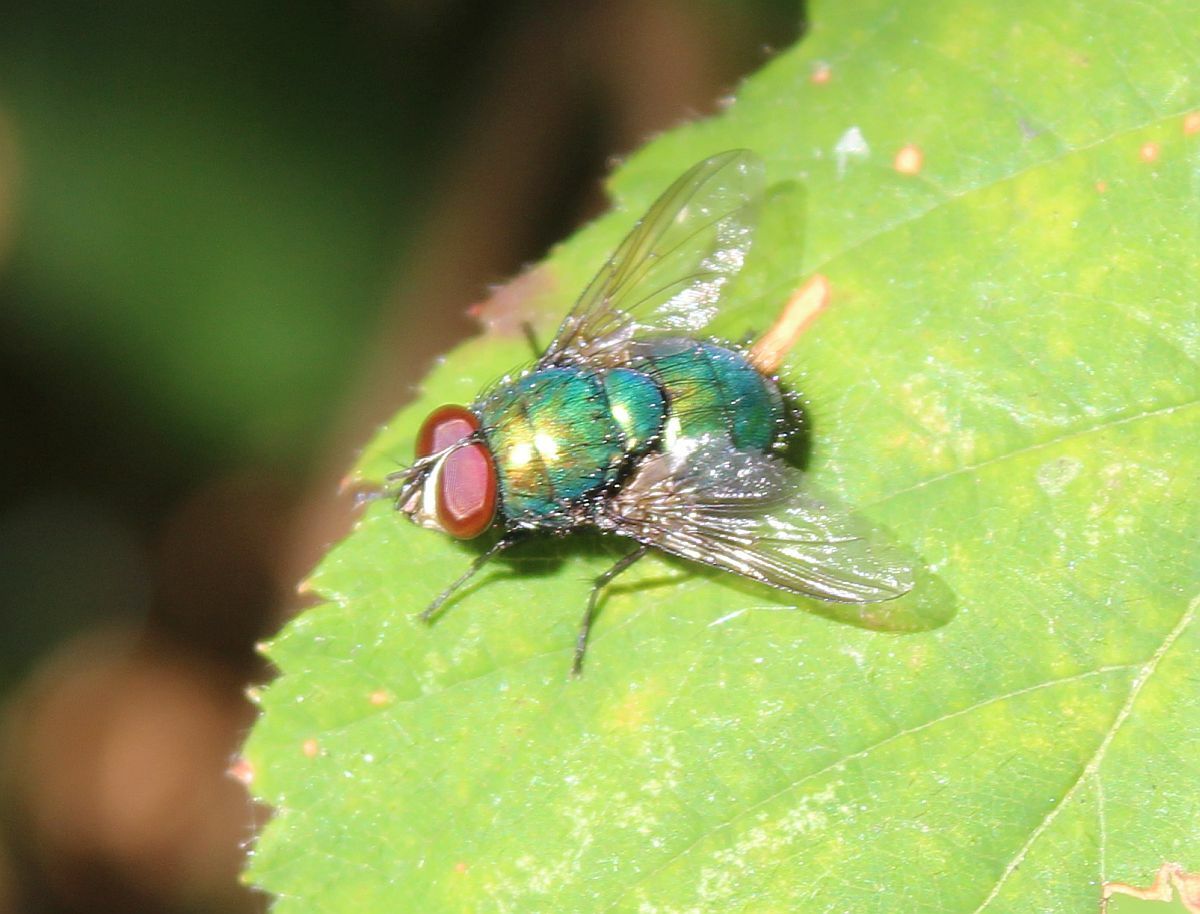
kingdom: Animalia
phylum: Arthropoda
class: Insecta
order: Diptera
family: Calliphoridae
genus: Lucilia
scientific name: Lucilia
